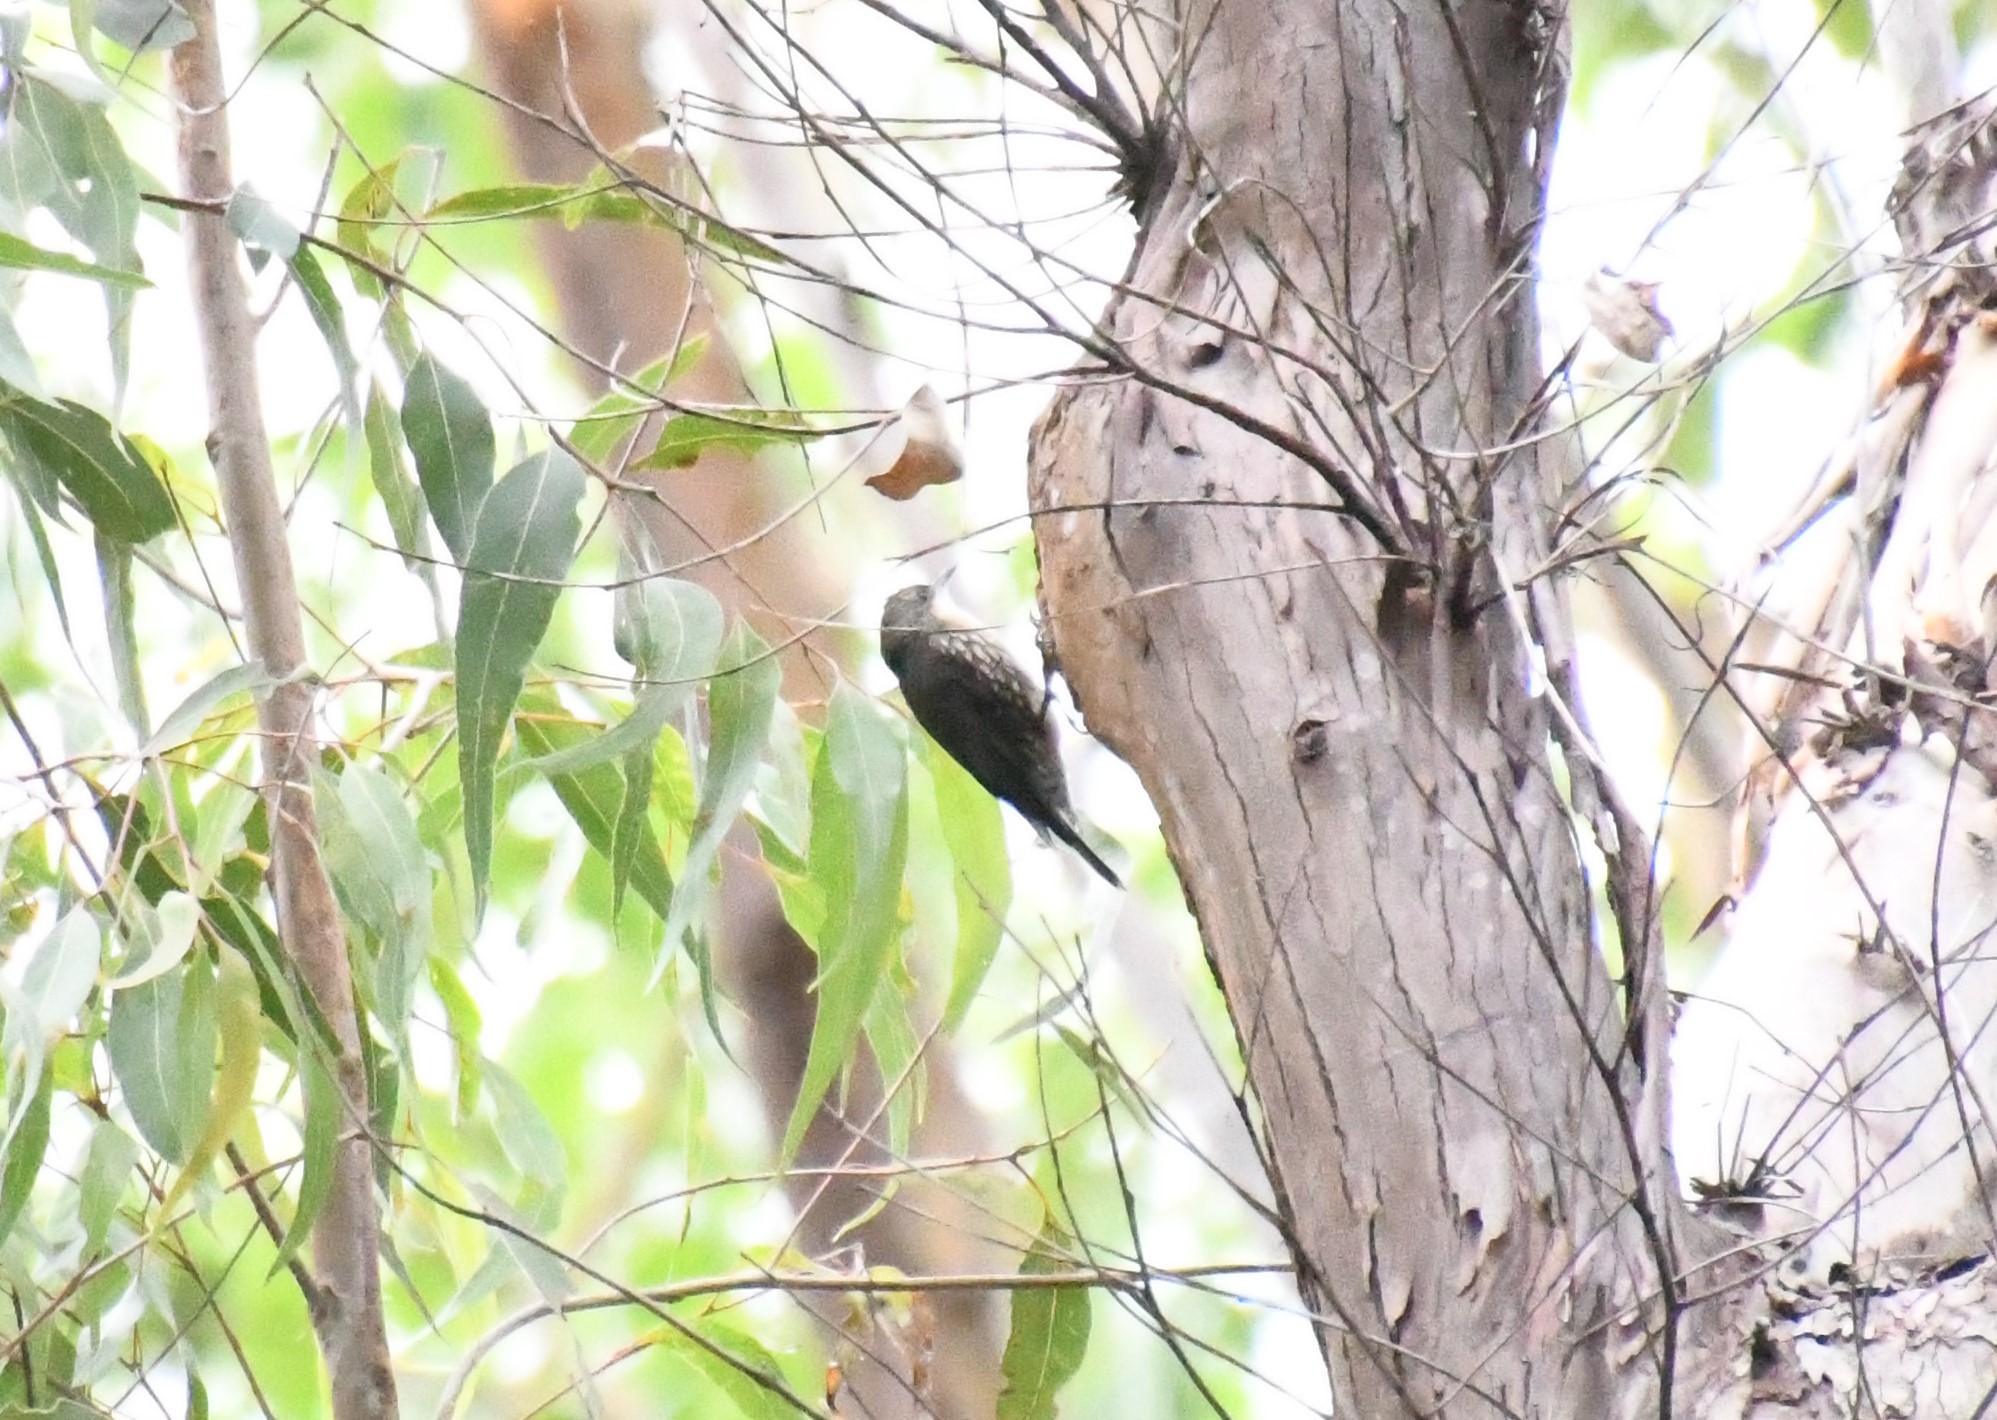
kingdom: Animalia
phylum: Chordata
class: Aves
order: Passeriformes
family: Climacteridae
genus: Cormobates
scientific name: Cormobates leucophaea
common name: White-throated treecreeper
